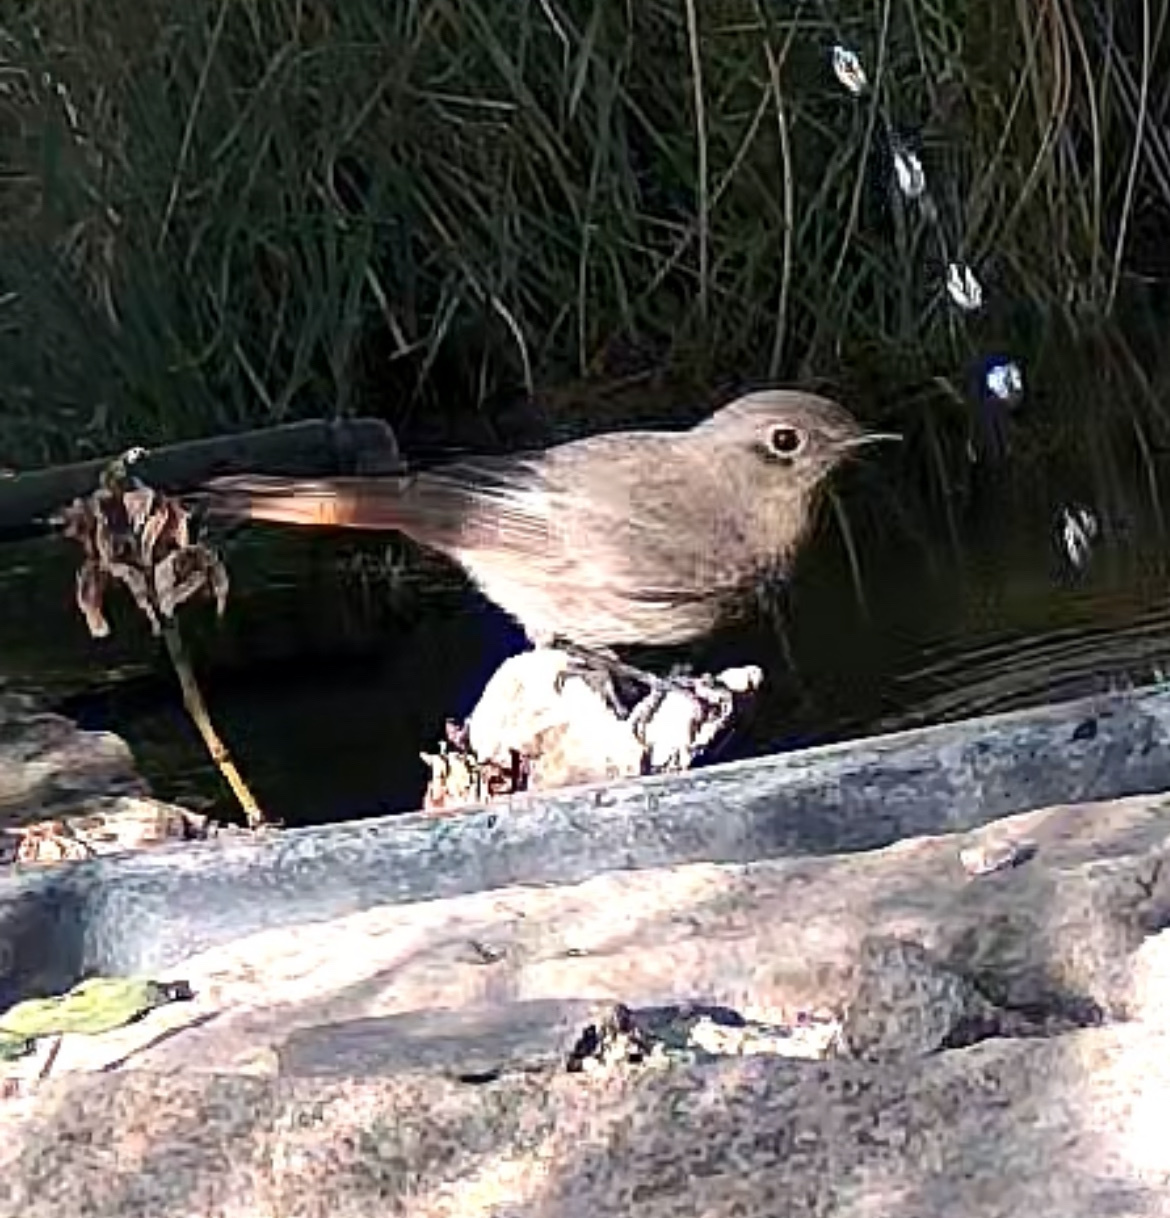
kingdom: Animalia
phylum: Chordata
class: Aves
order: Passeriformes
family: Muscicapidae
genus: Phoenicurus
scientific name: Phoenicurus ochruros
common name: Black redstart
